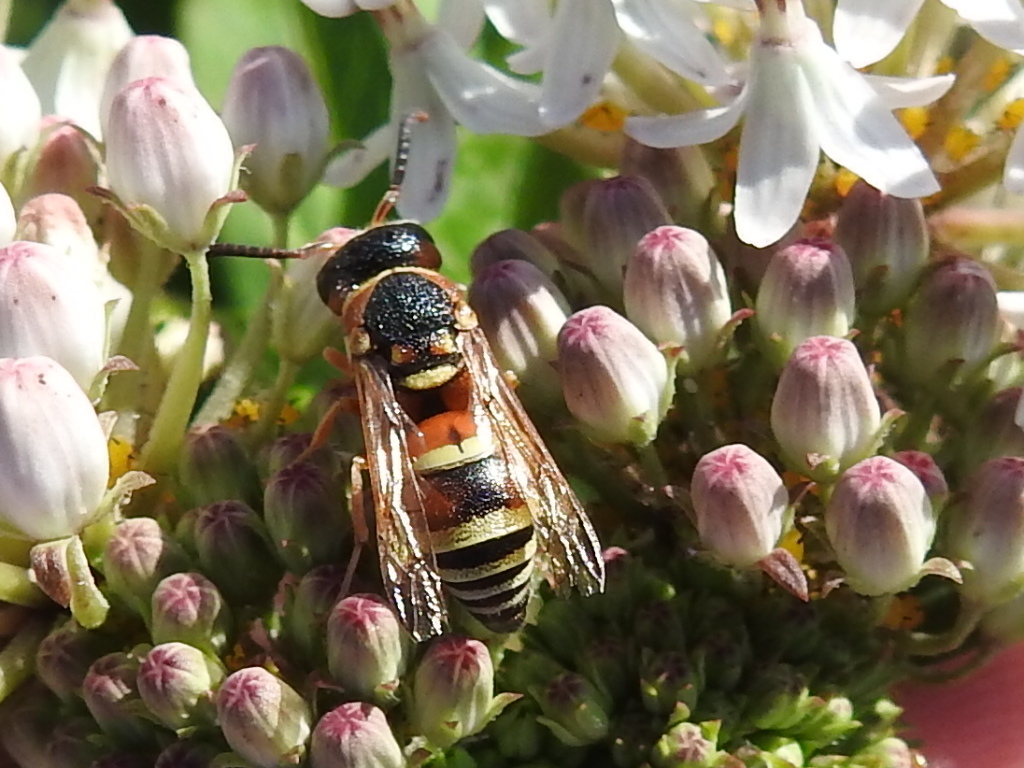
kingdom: Animalia
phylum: Arthropoda
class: Insecta
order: Hymenoptera
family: Eumenidae
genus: Euodynerus
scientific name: Euodynerus annulatus
